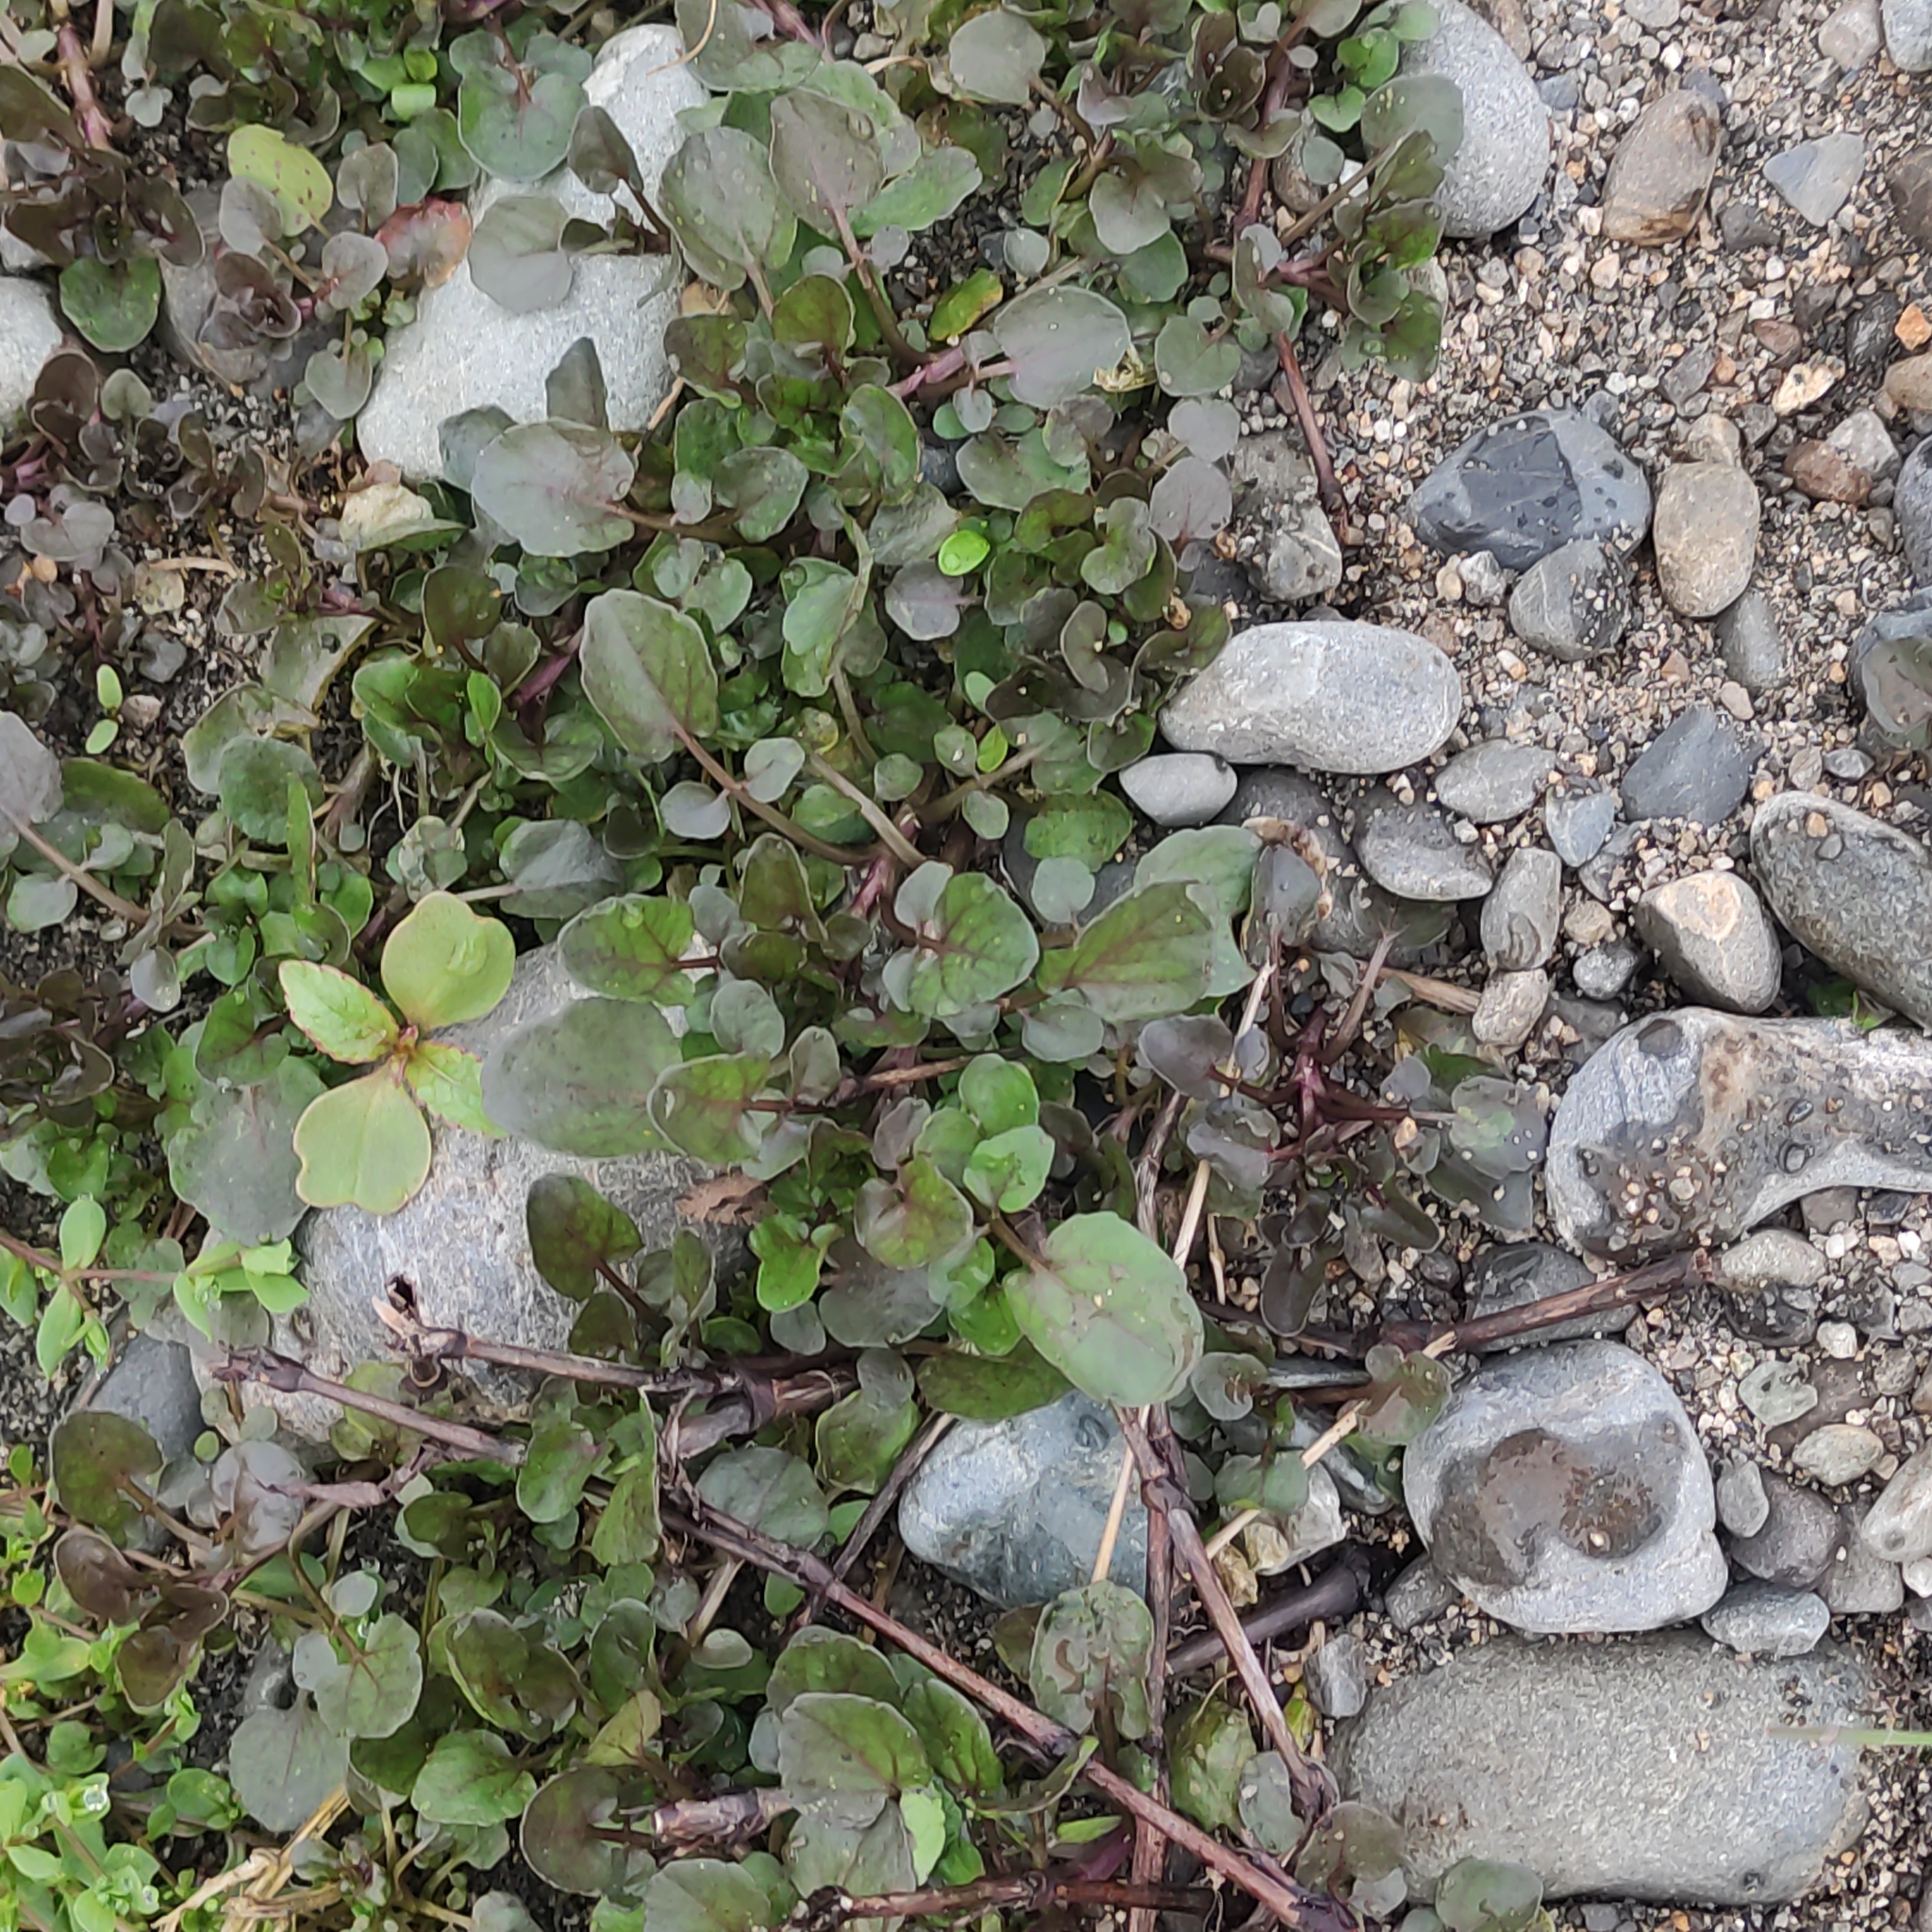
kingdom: Plantae
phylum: Tracheophyta
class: Magnoliopsida
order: Brassicales
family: Brassicaceae
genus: Nasturtium
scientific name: Nasturtium officinale
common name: Watercress
